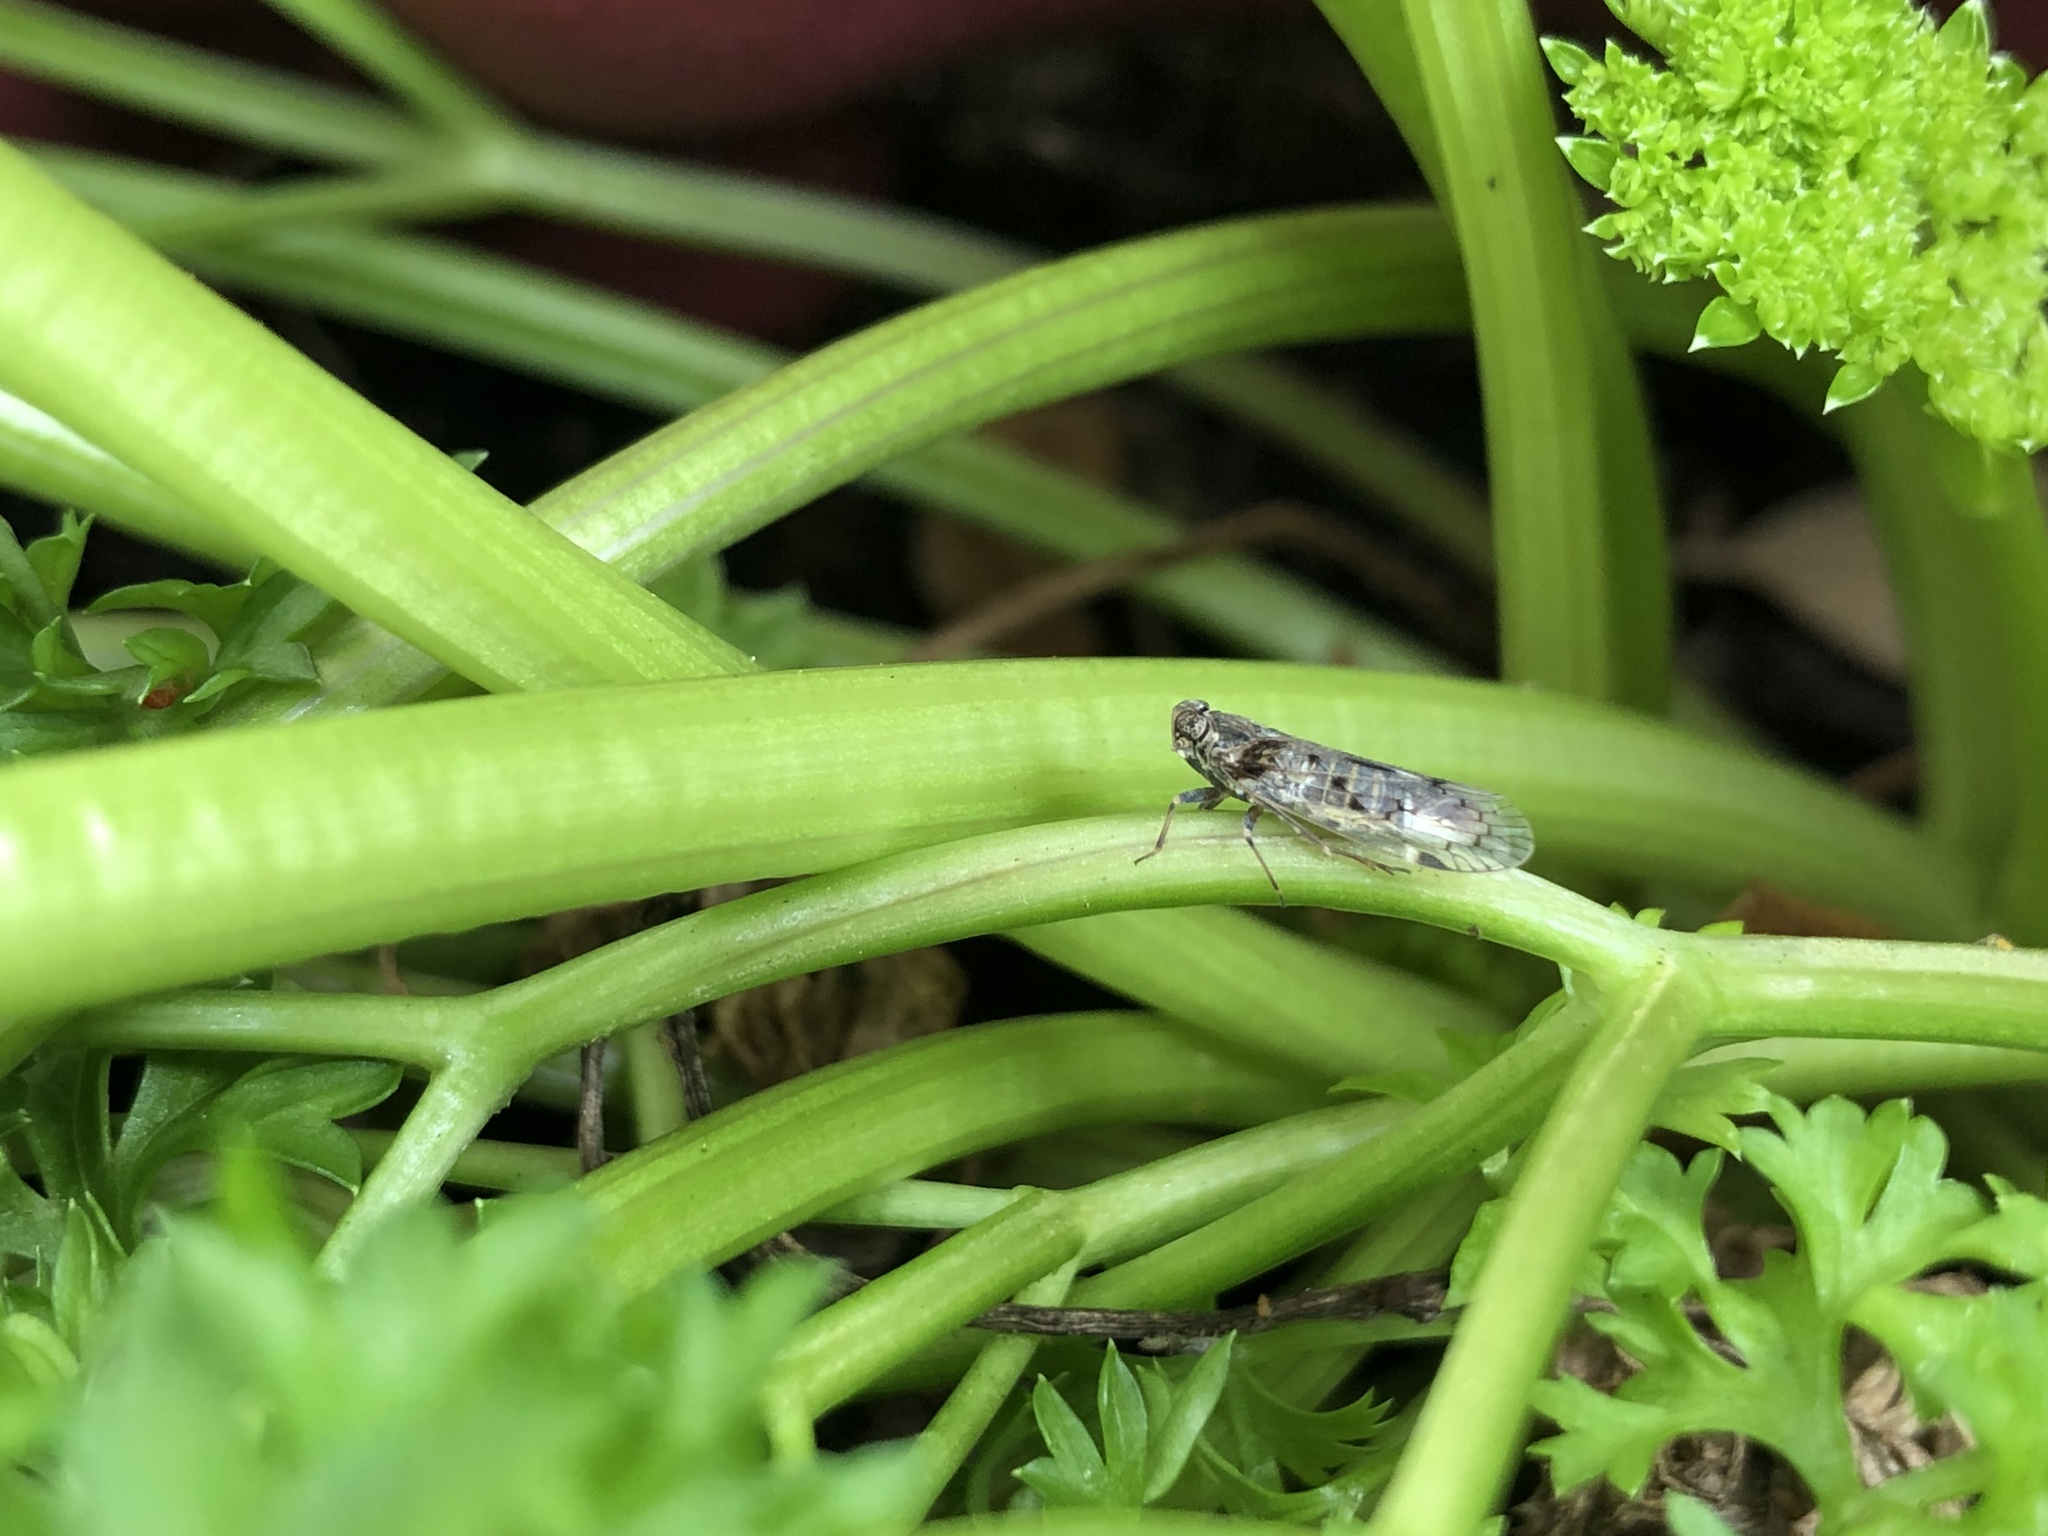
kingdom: Animalia
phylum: Arthropoda
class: Insecta
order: Hemiptera
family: Cixiidae
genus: Melanoliarus
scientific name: Melanoliarus aridus
